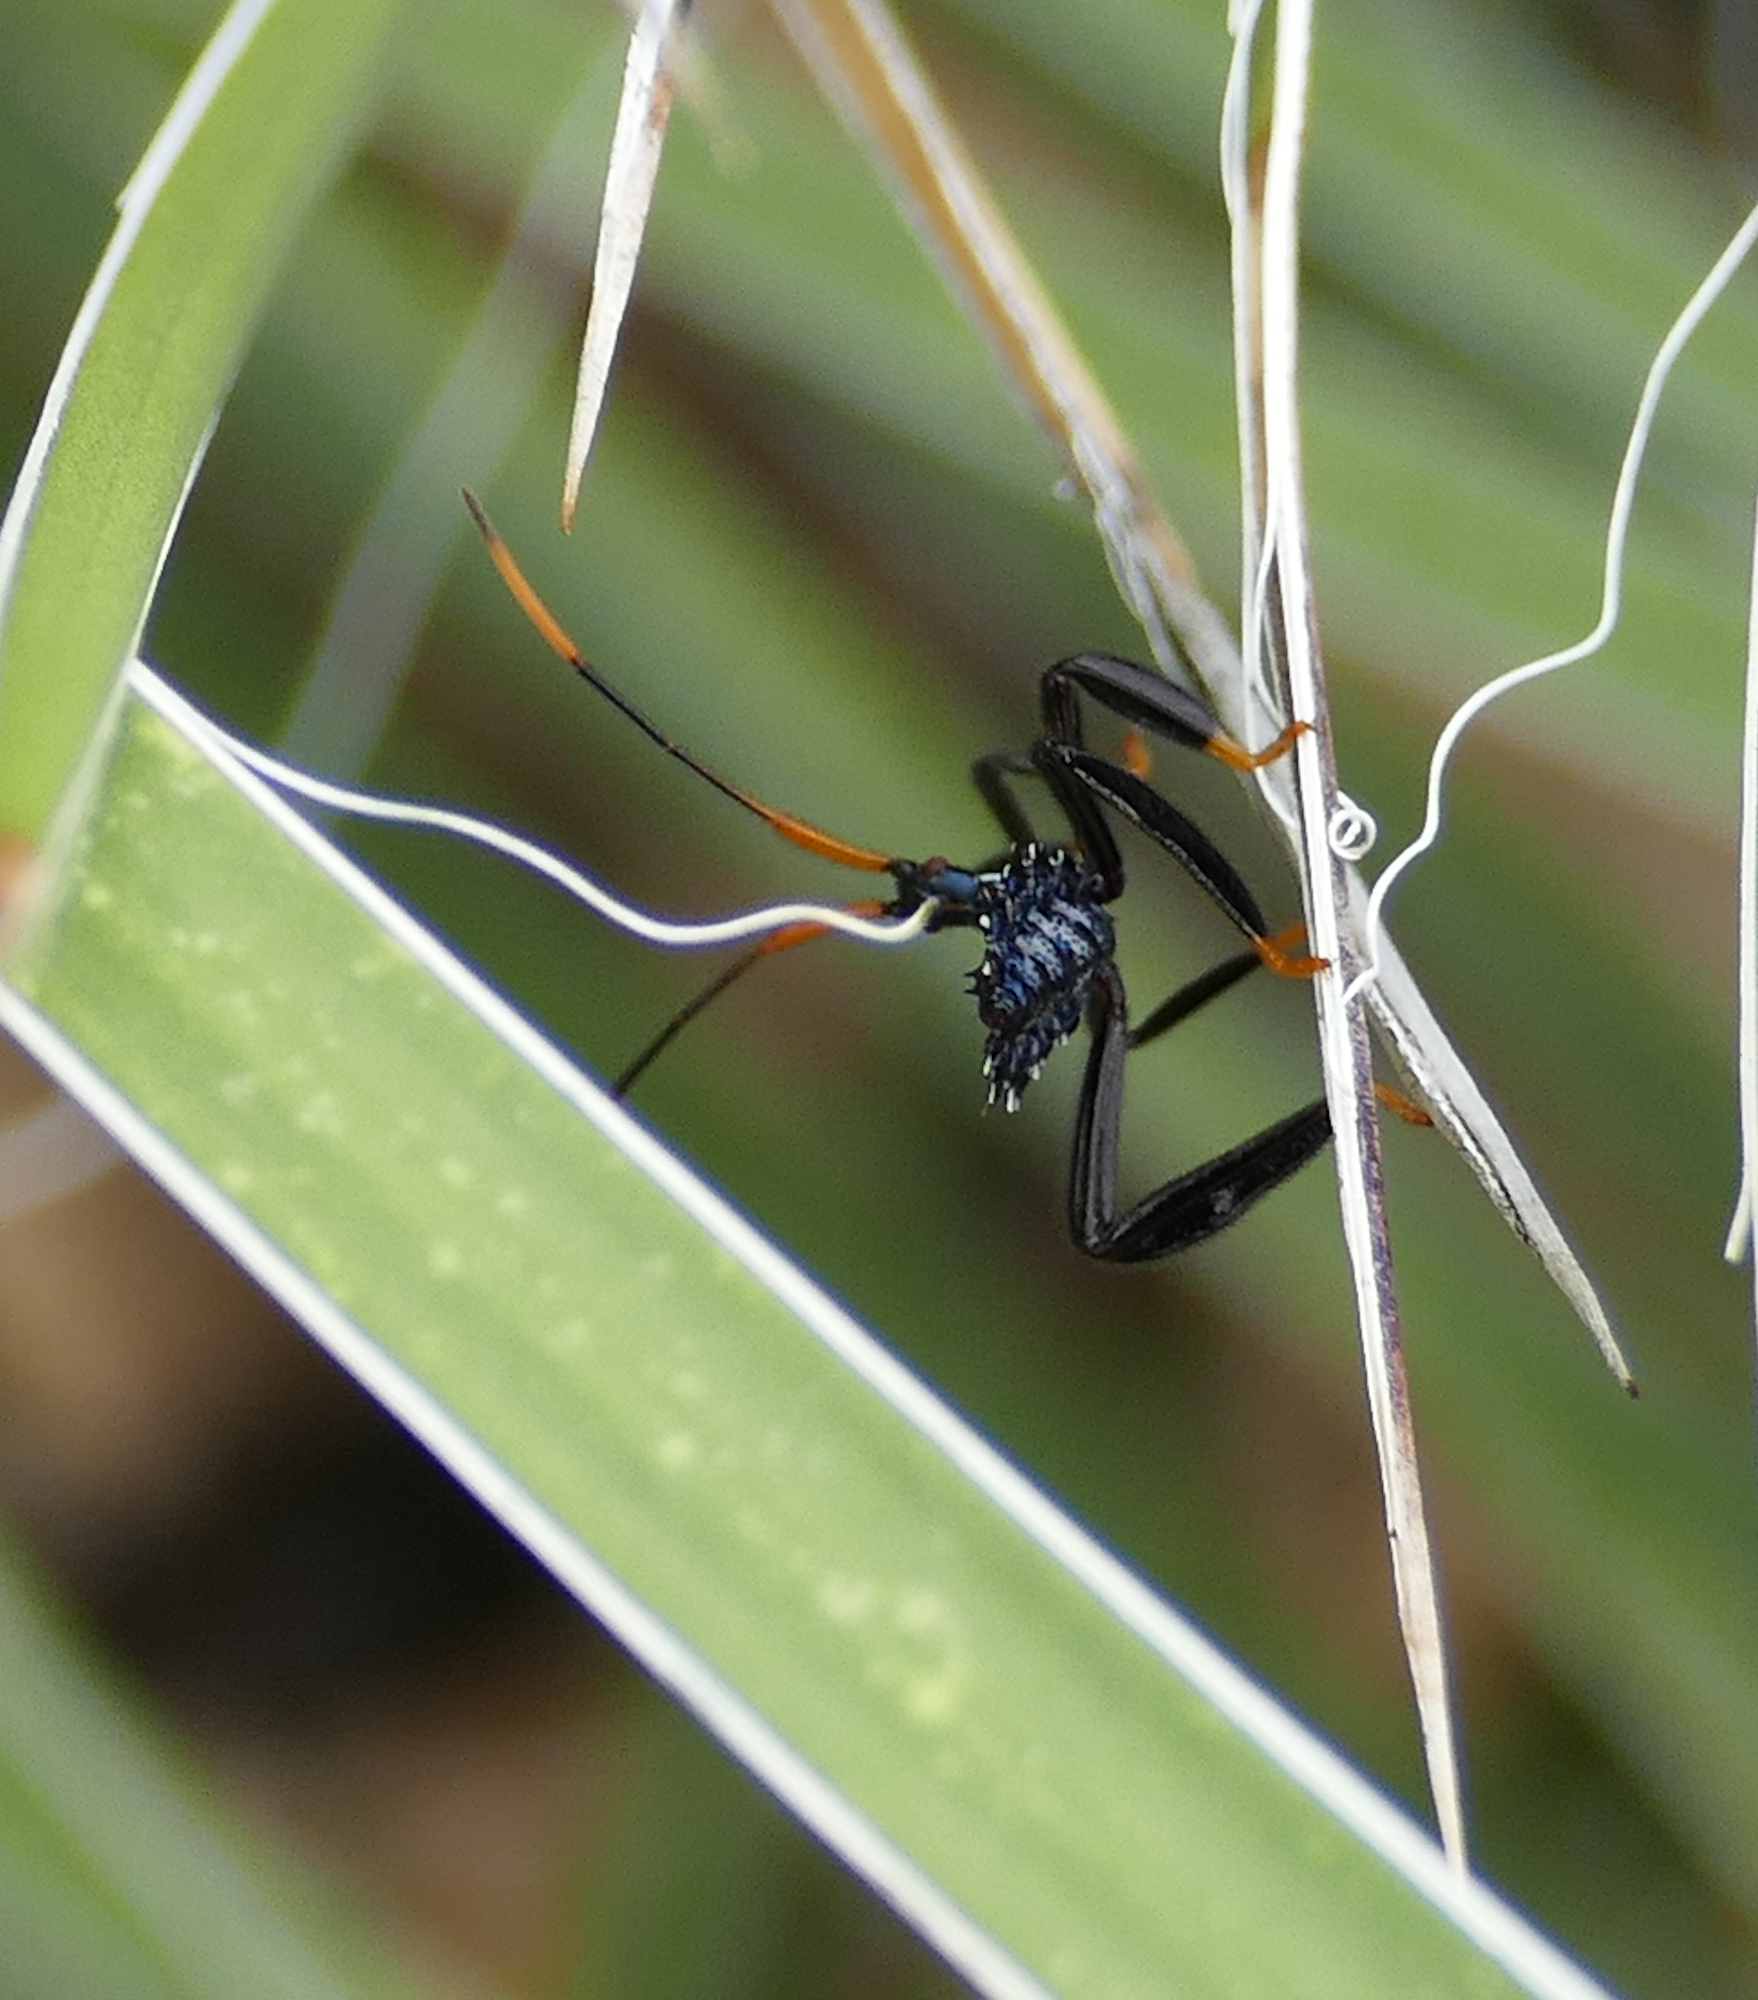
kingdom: Animalia
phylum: Arthropoda
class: Insecta
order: Hemiptera
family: Coreidae
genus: Acanthocephala
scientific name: Acanthocephala thomasi
